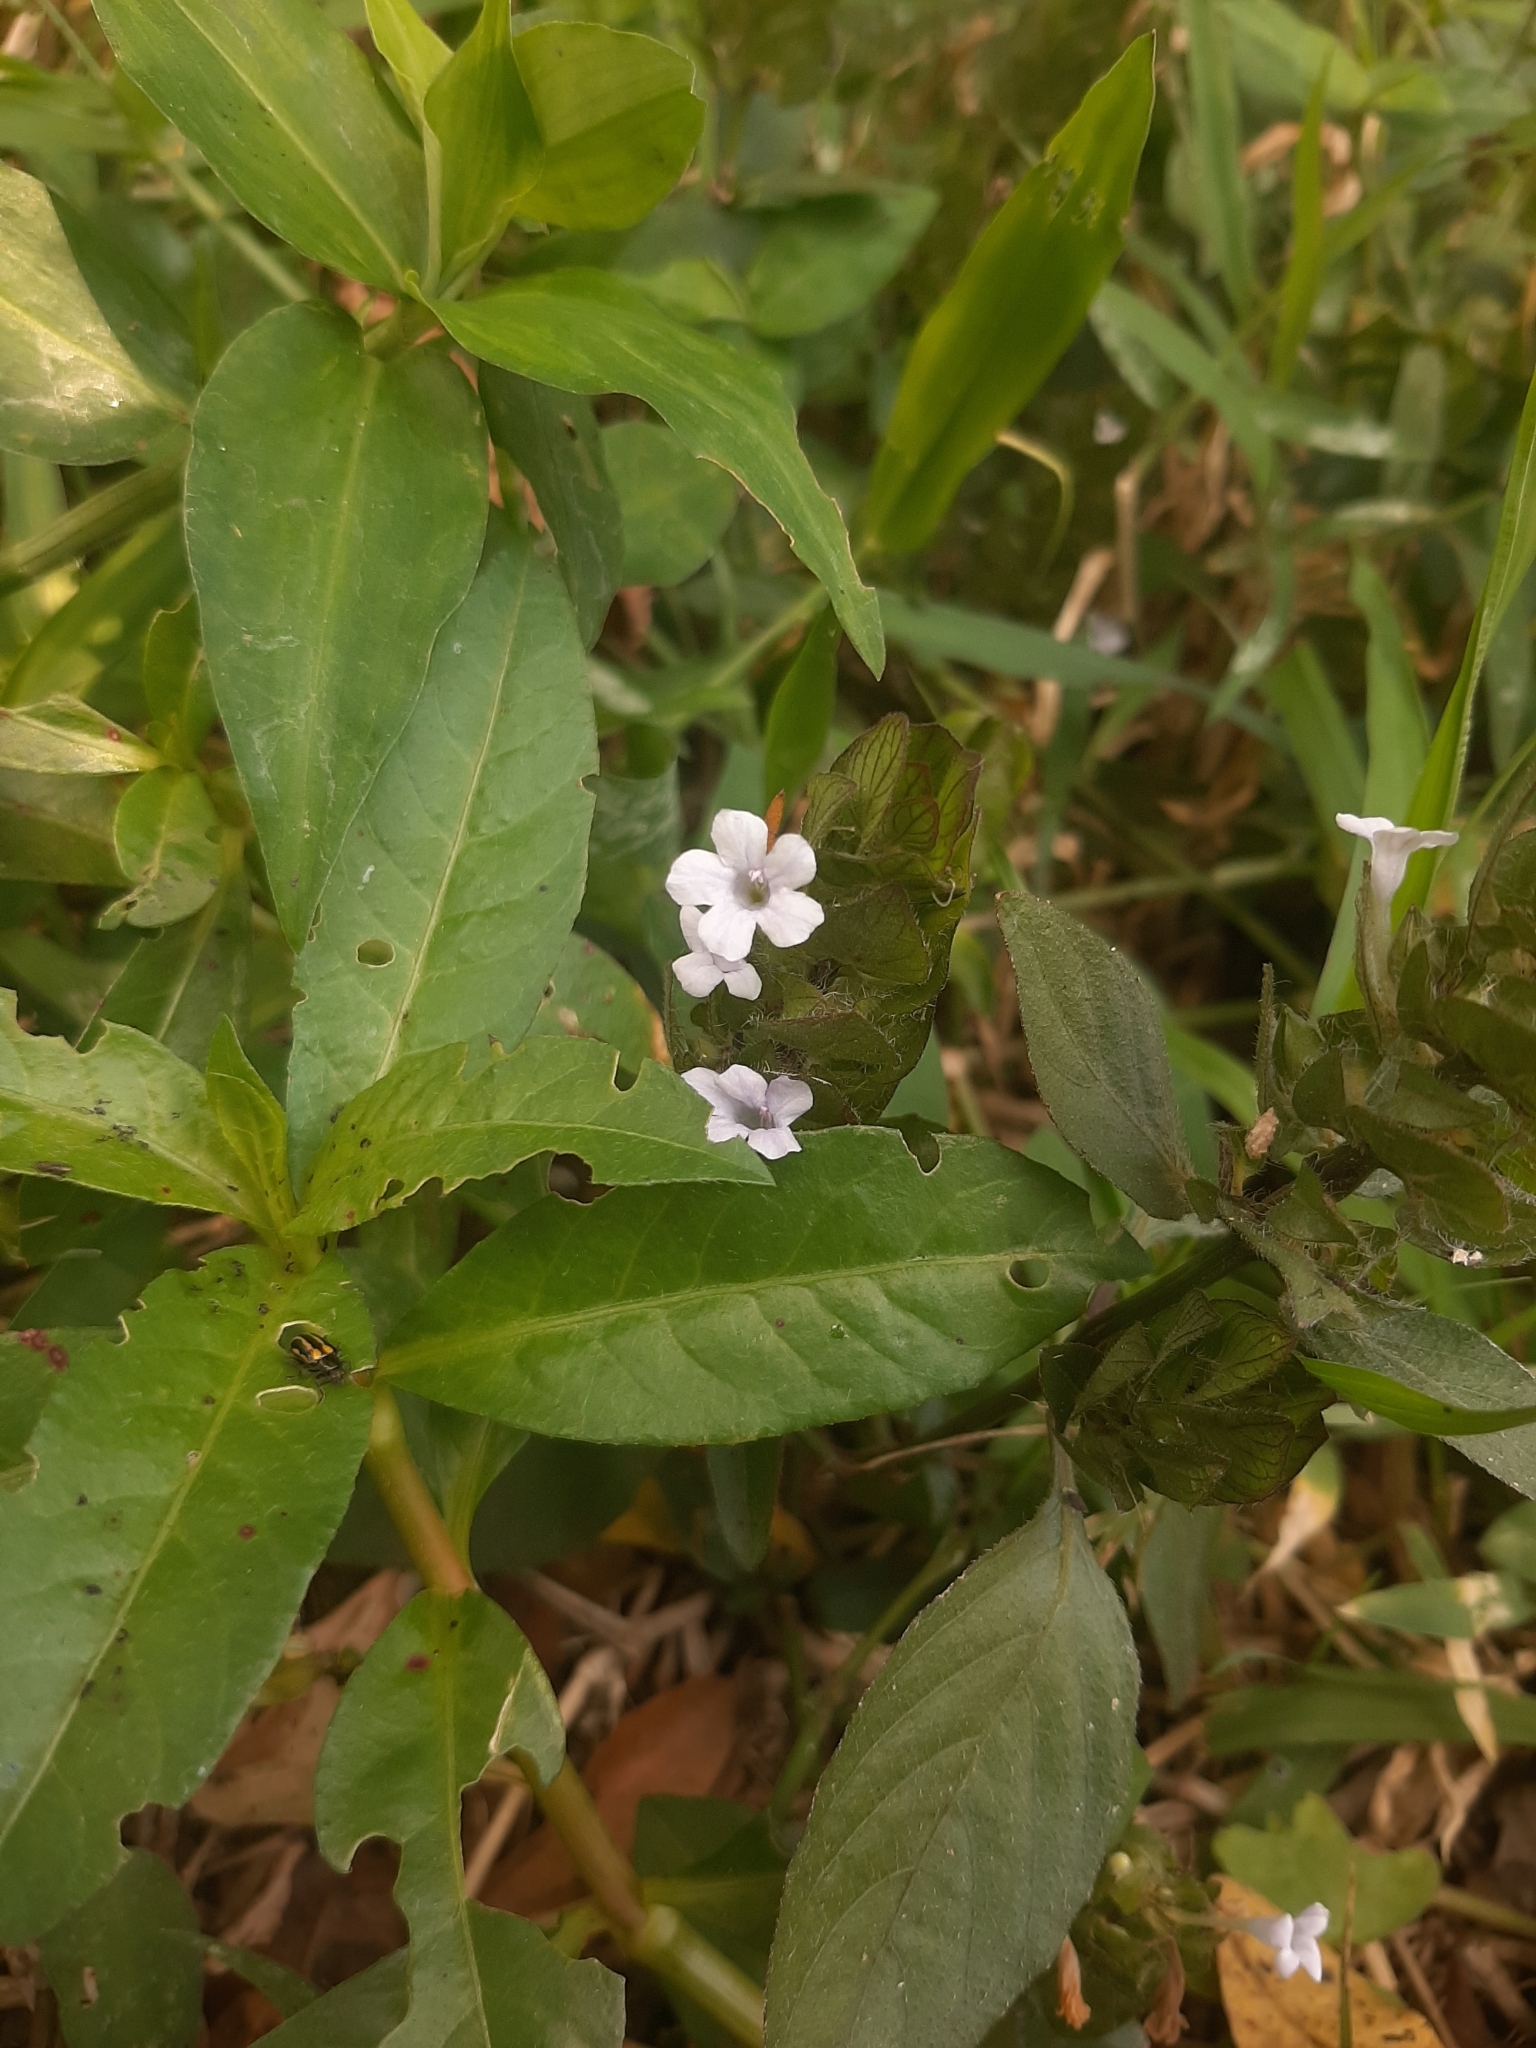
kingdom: Plantae
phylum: Tracheophyta
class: Magnoliopsida
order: Lamiales
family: Acanthaceae
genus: Ruellia
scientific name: Ruellia blechum
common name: Browne's blechum
